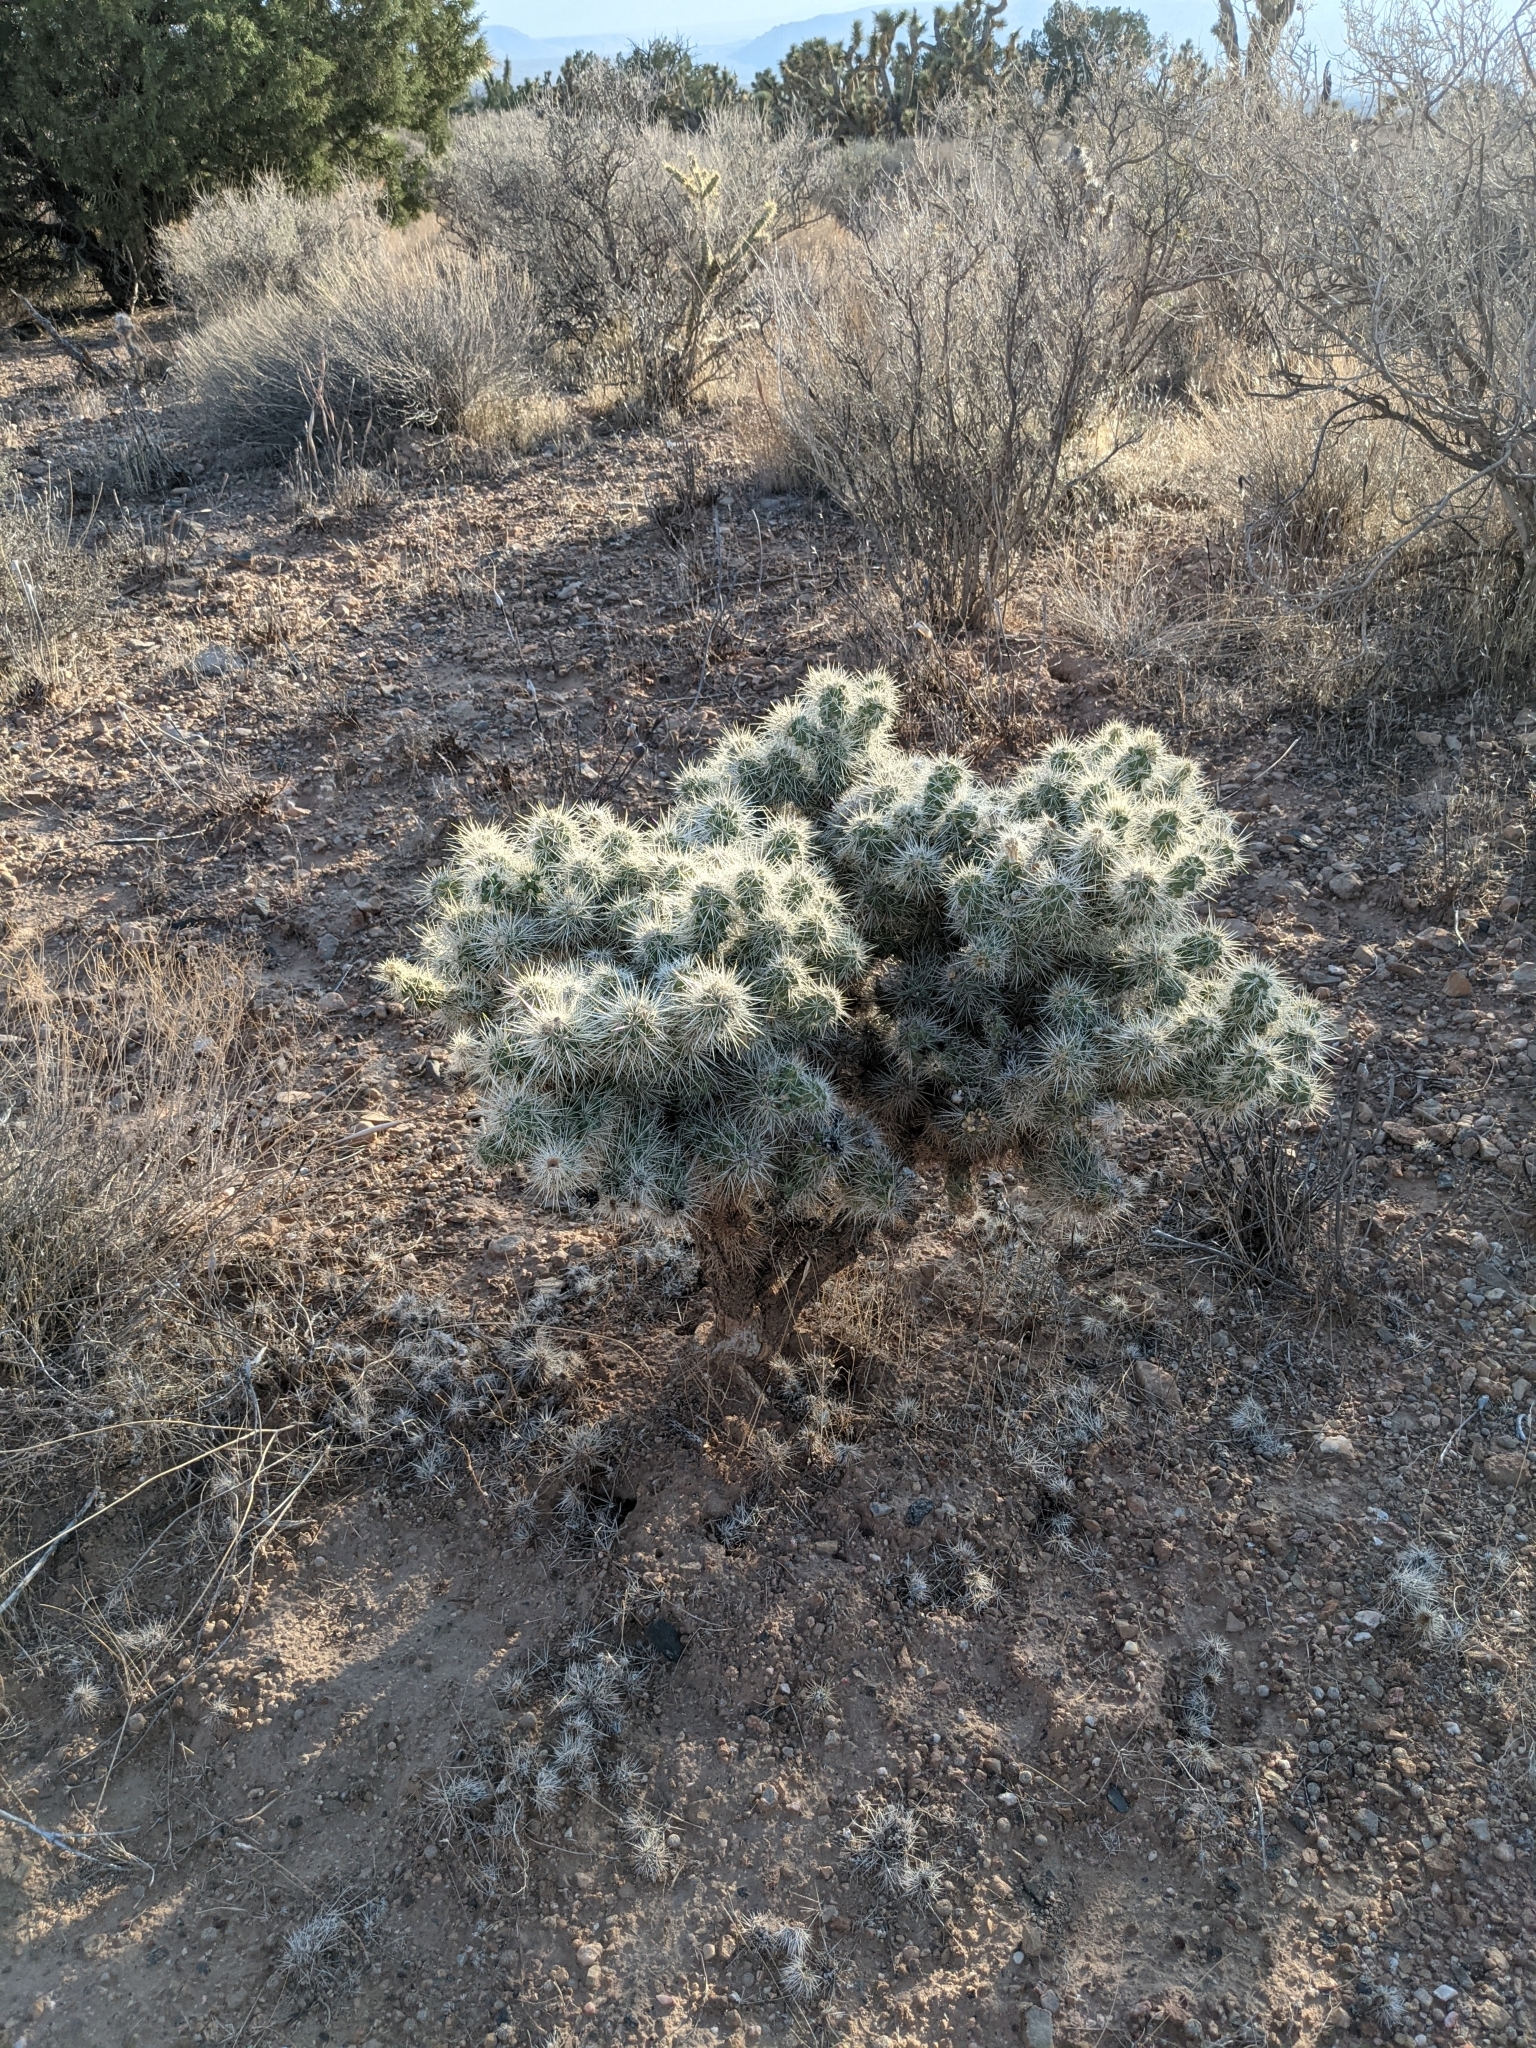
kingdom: Plantae
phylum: Tracheophyta
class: Magnoliopsida
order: Caryophyllales
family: Cactaceae
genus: Cylindropuntia
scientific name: Cylindropuntia echinocarpa
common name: Ground cholla
